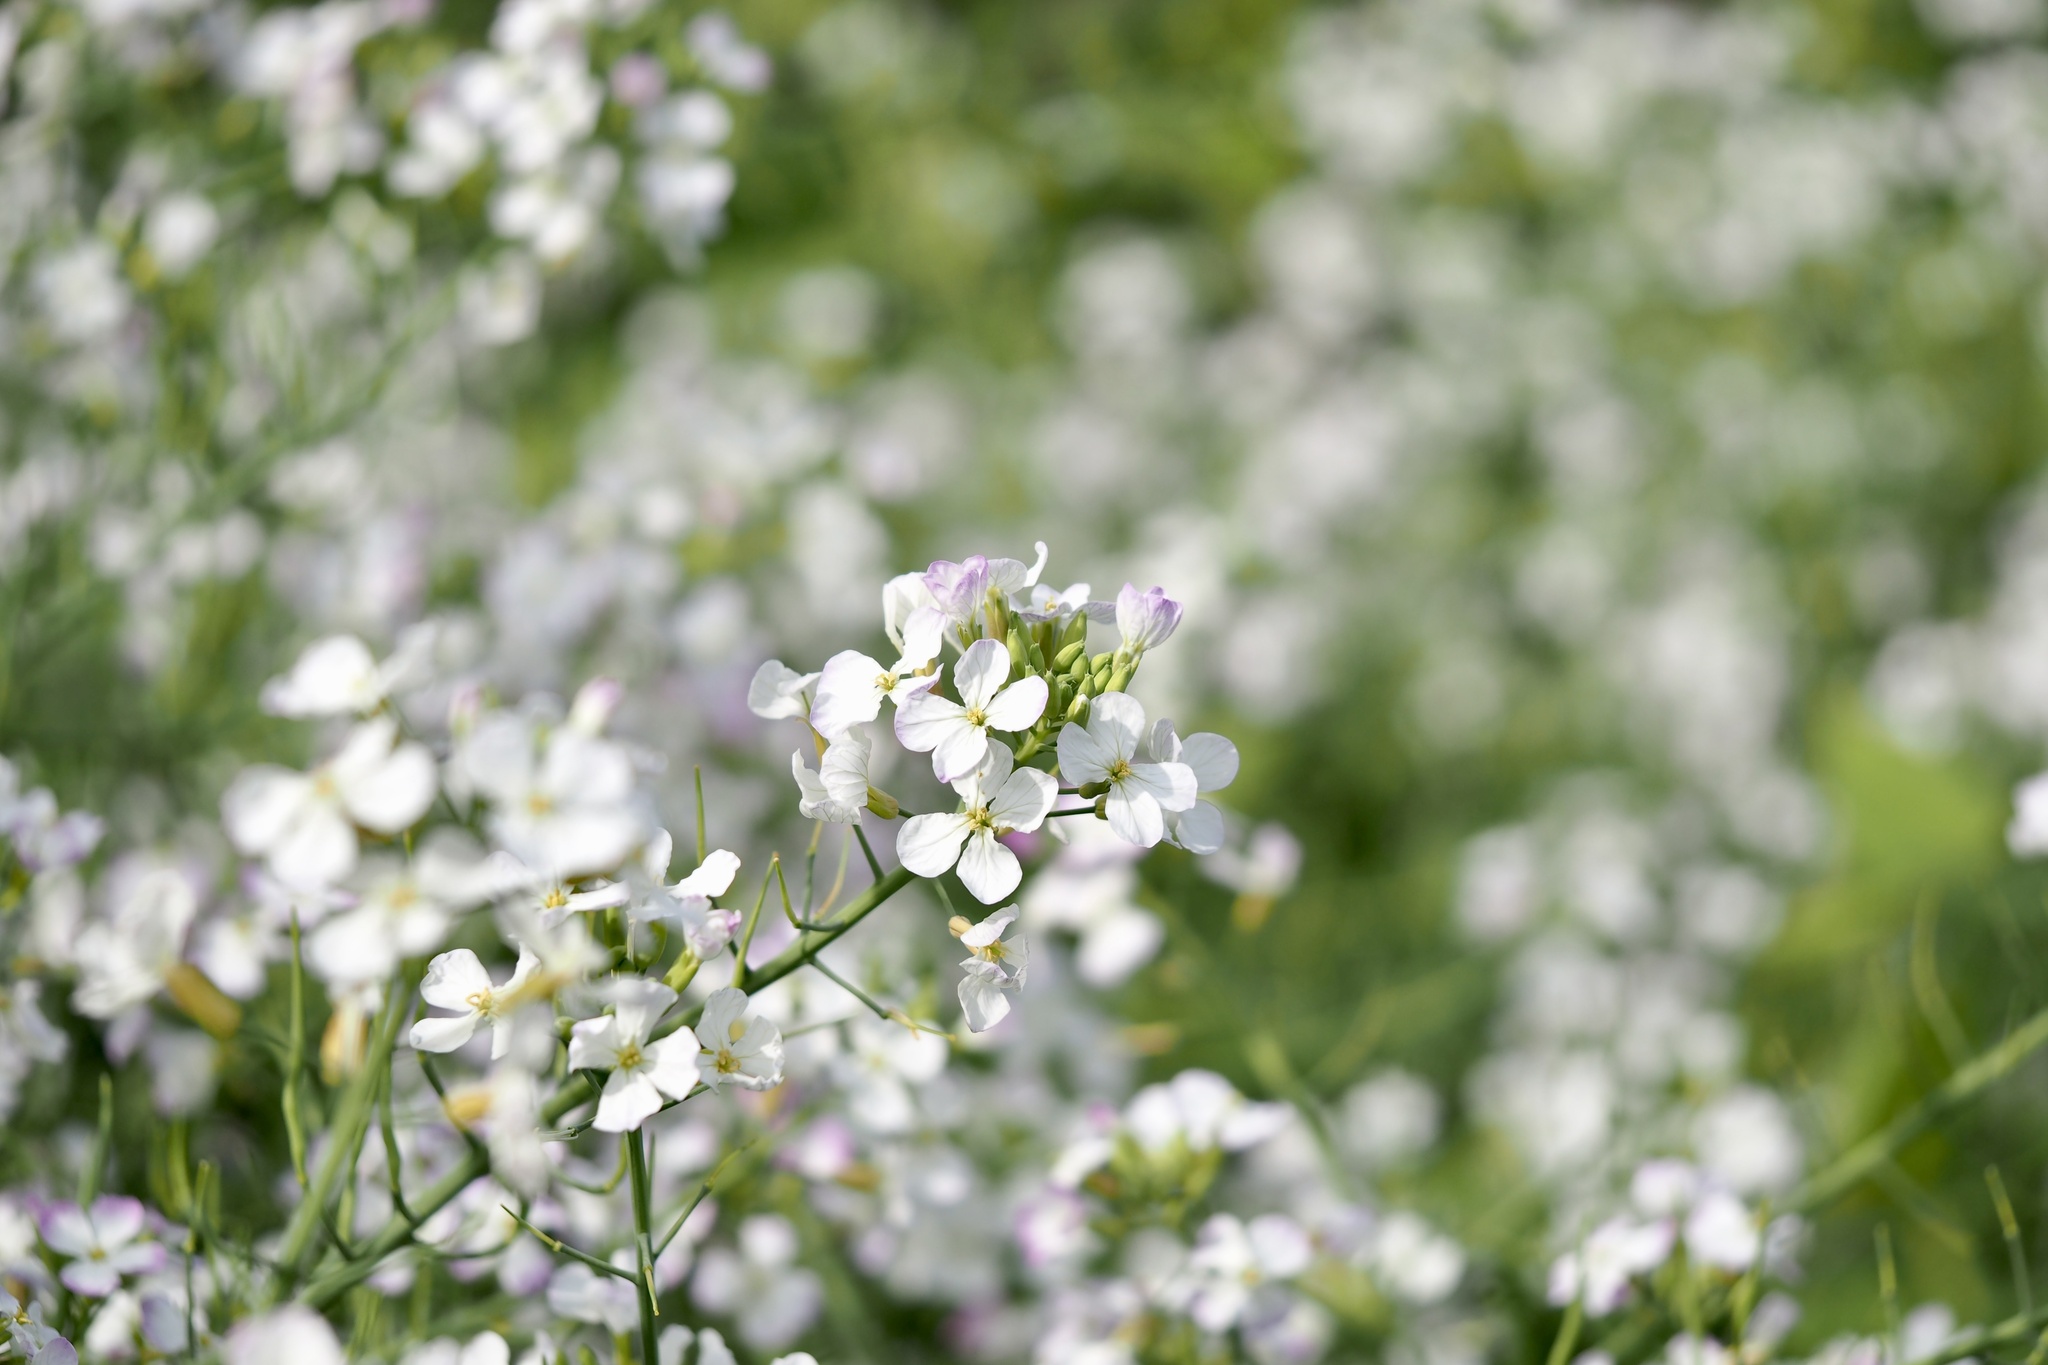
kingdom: Plantae
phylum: Tracheophyta
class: Magnoliopsida
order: Brassicales
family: Brassicaceae
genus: Raphanus
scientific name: Raphanus sativus
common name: Cultivated radish
